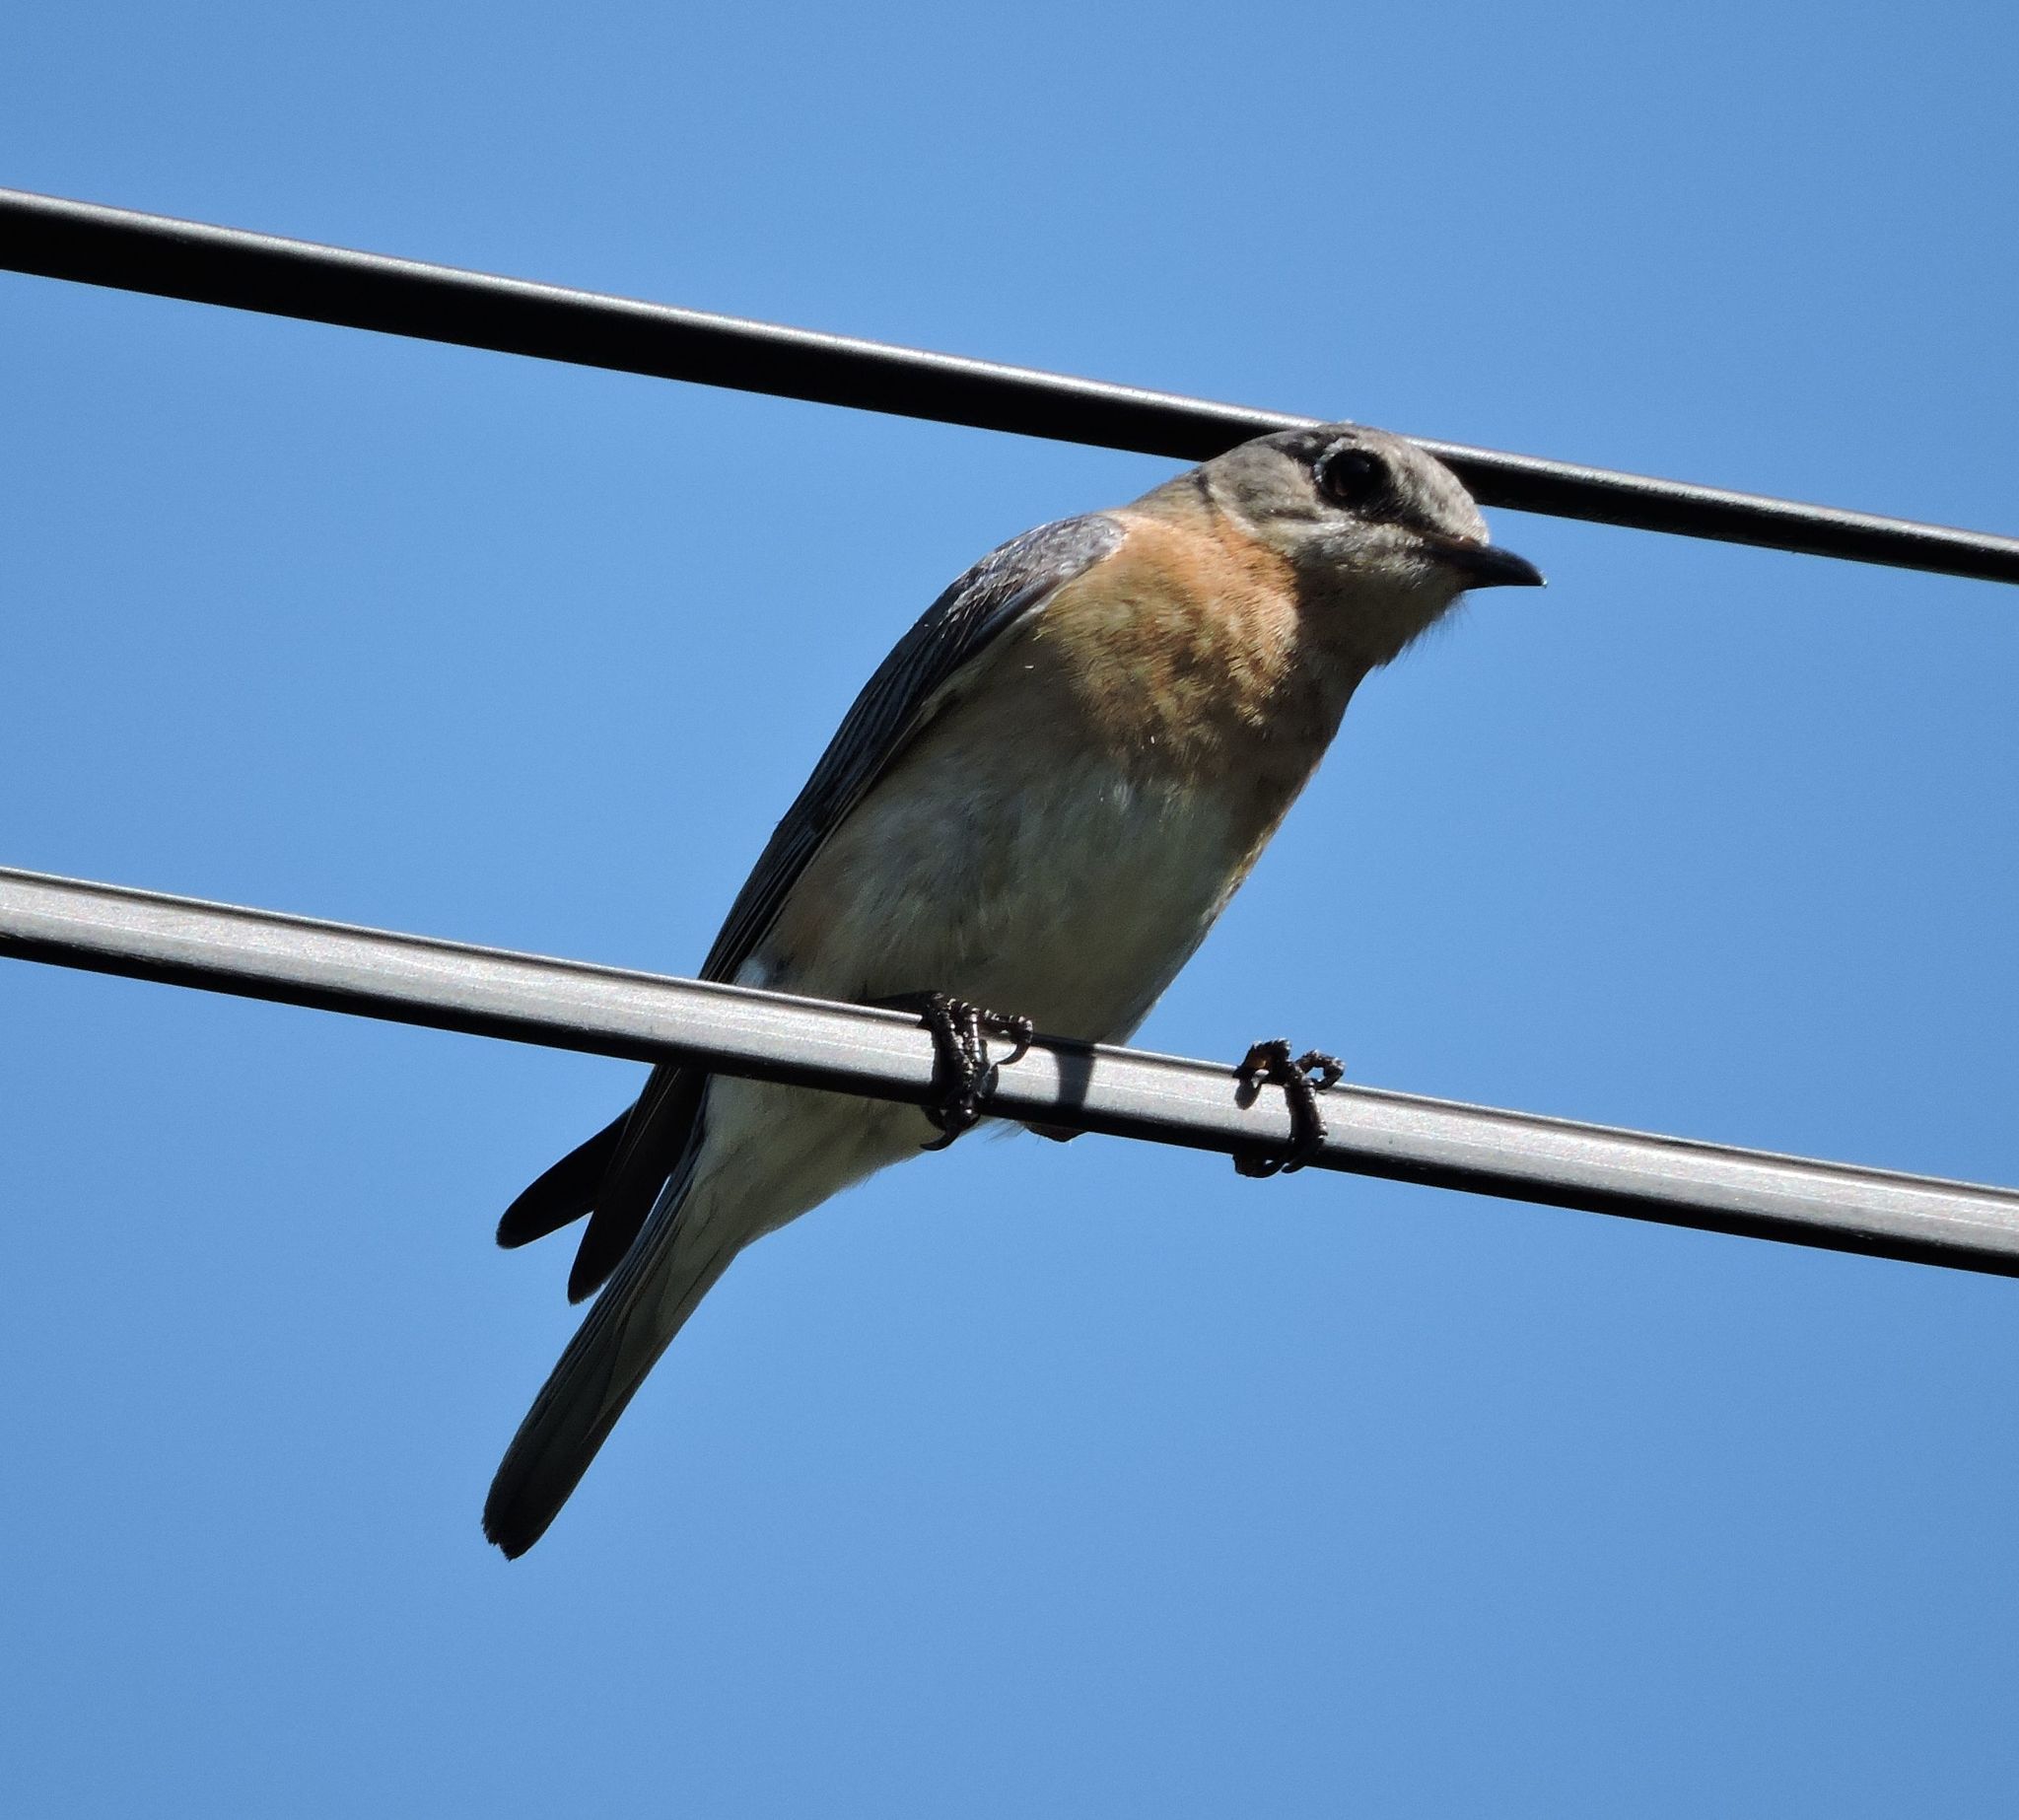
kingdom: Animalia
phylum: Chordata
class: Aves
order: Passeriformes
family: Turdidae
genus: Sialia
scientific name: Sialia sialis
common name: Eastern bluebird
